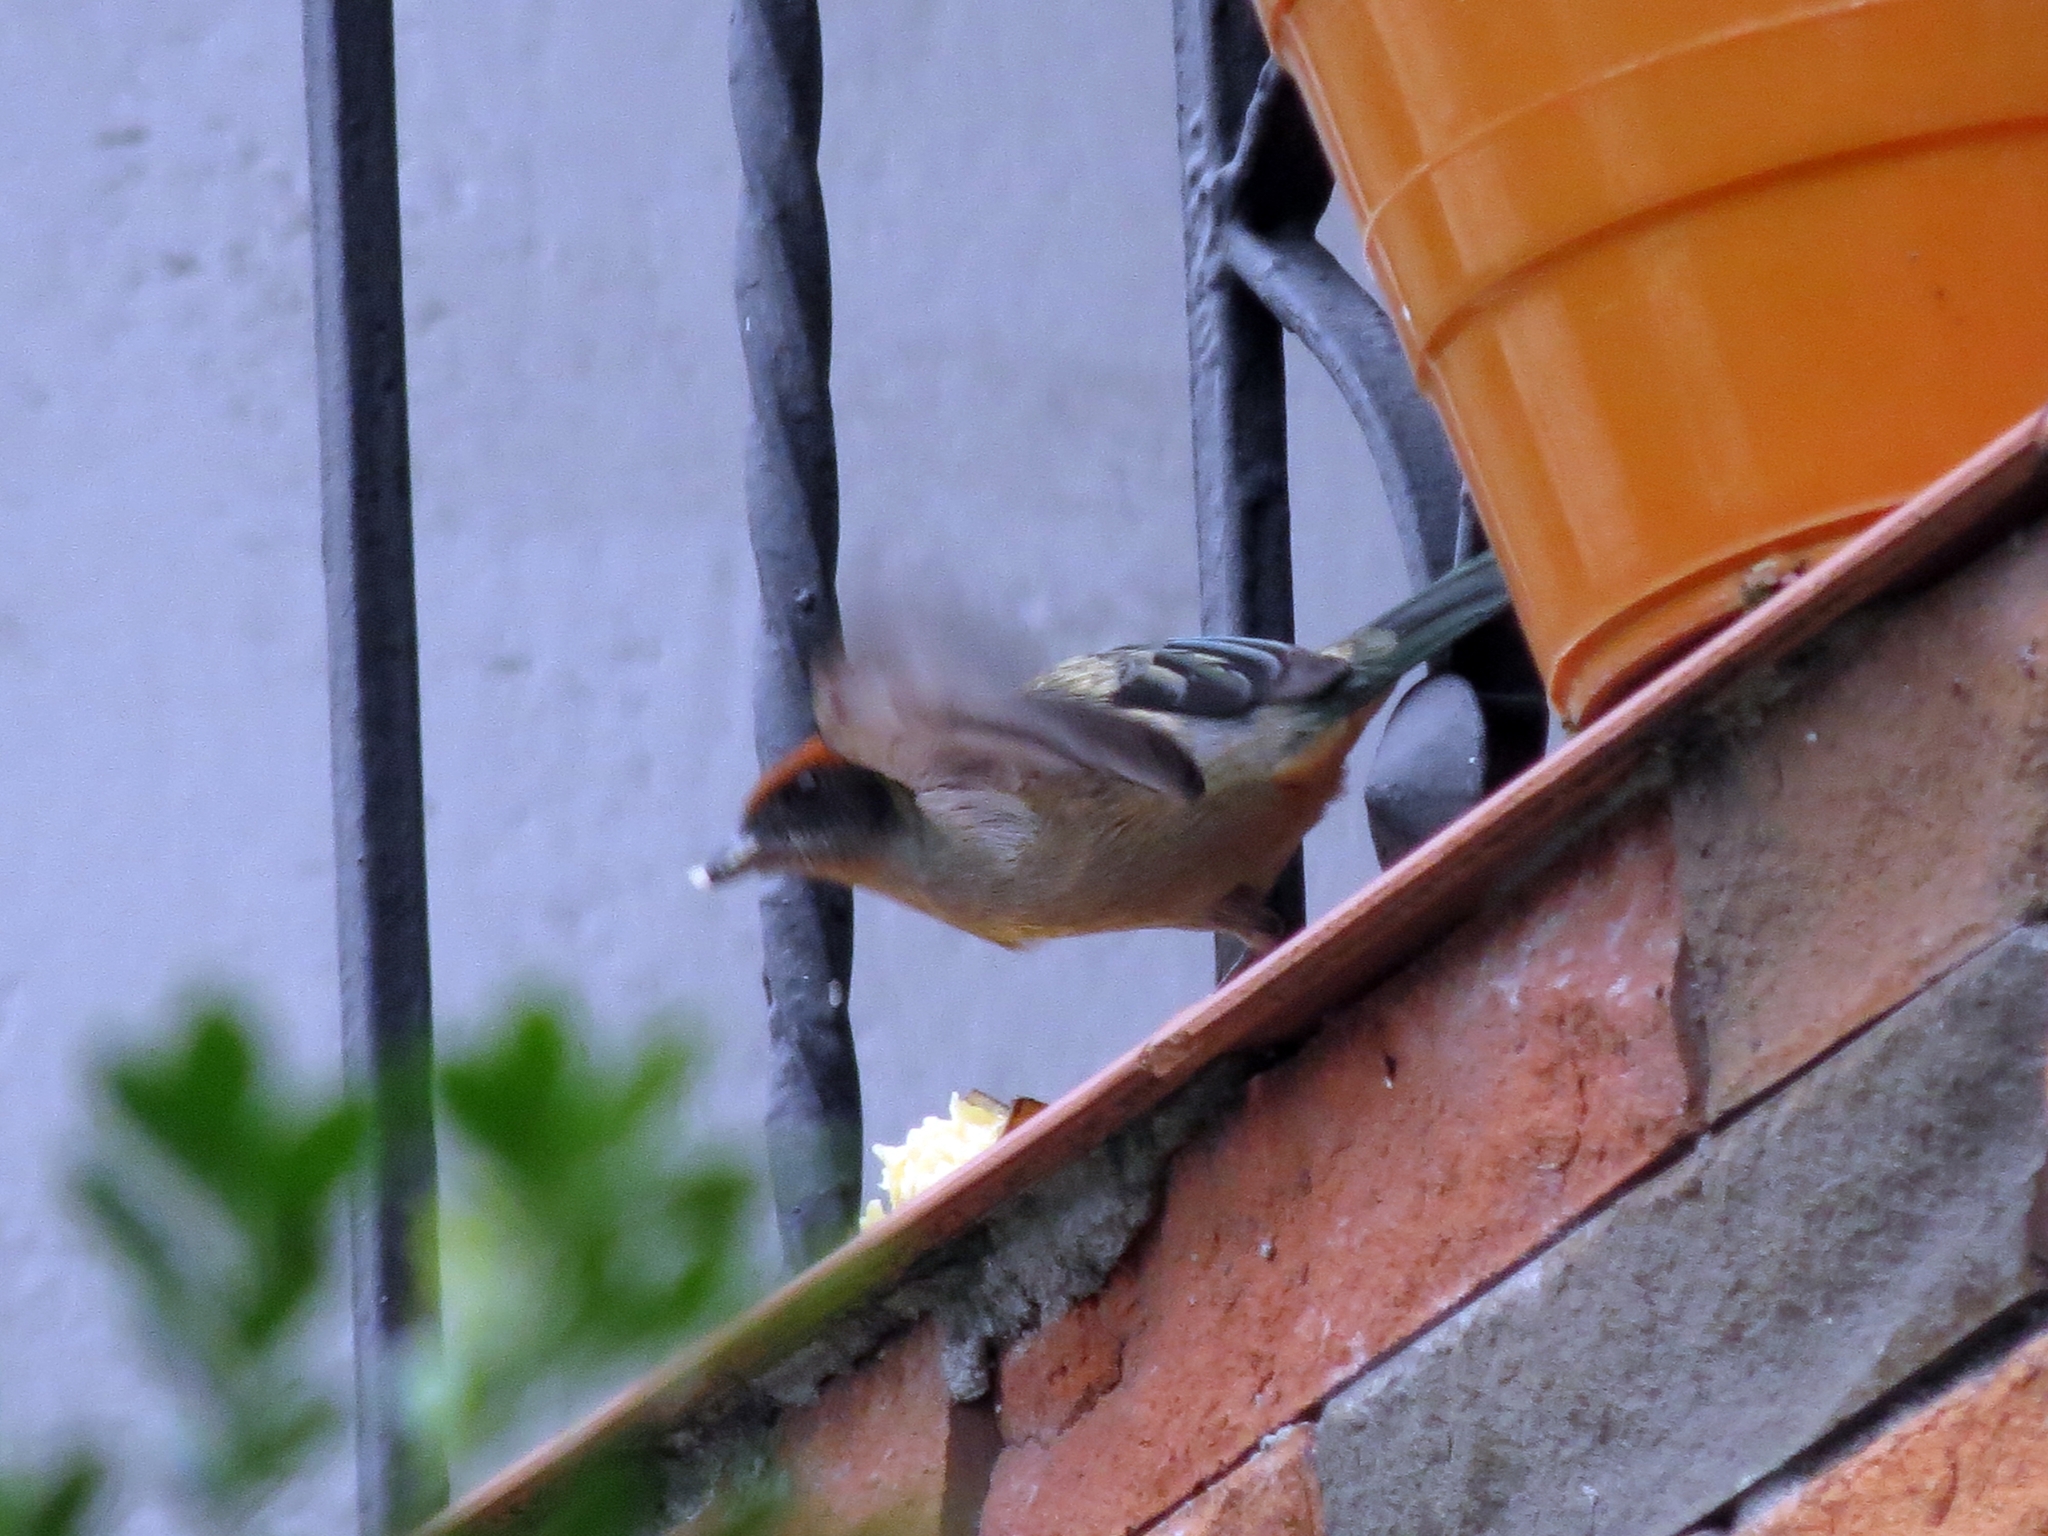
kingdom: Animalia
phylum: Chordata
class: Aves
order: Passeriformes
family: Thraupidae
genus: Stilpnia
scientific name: Stilpnia vitriolina
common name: Scrub tanager
